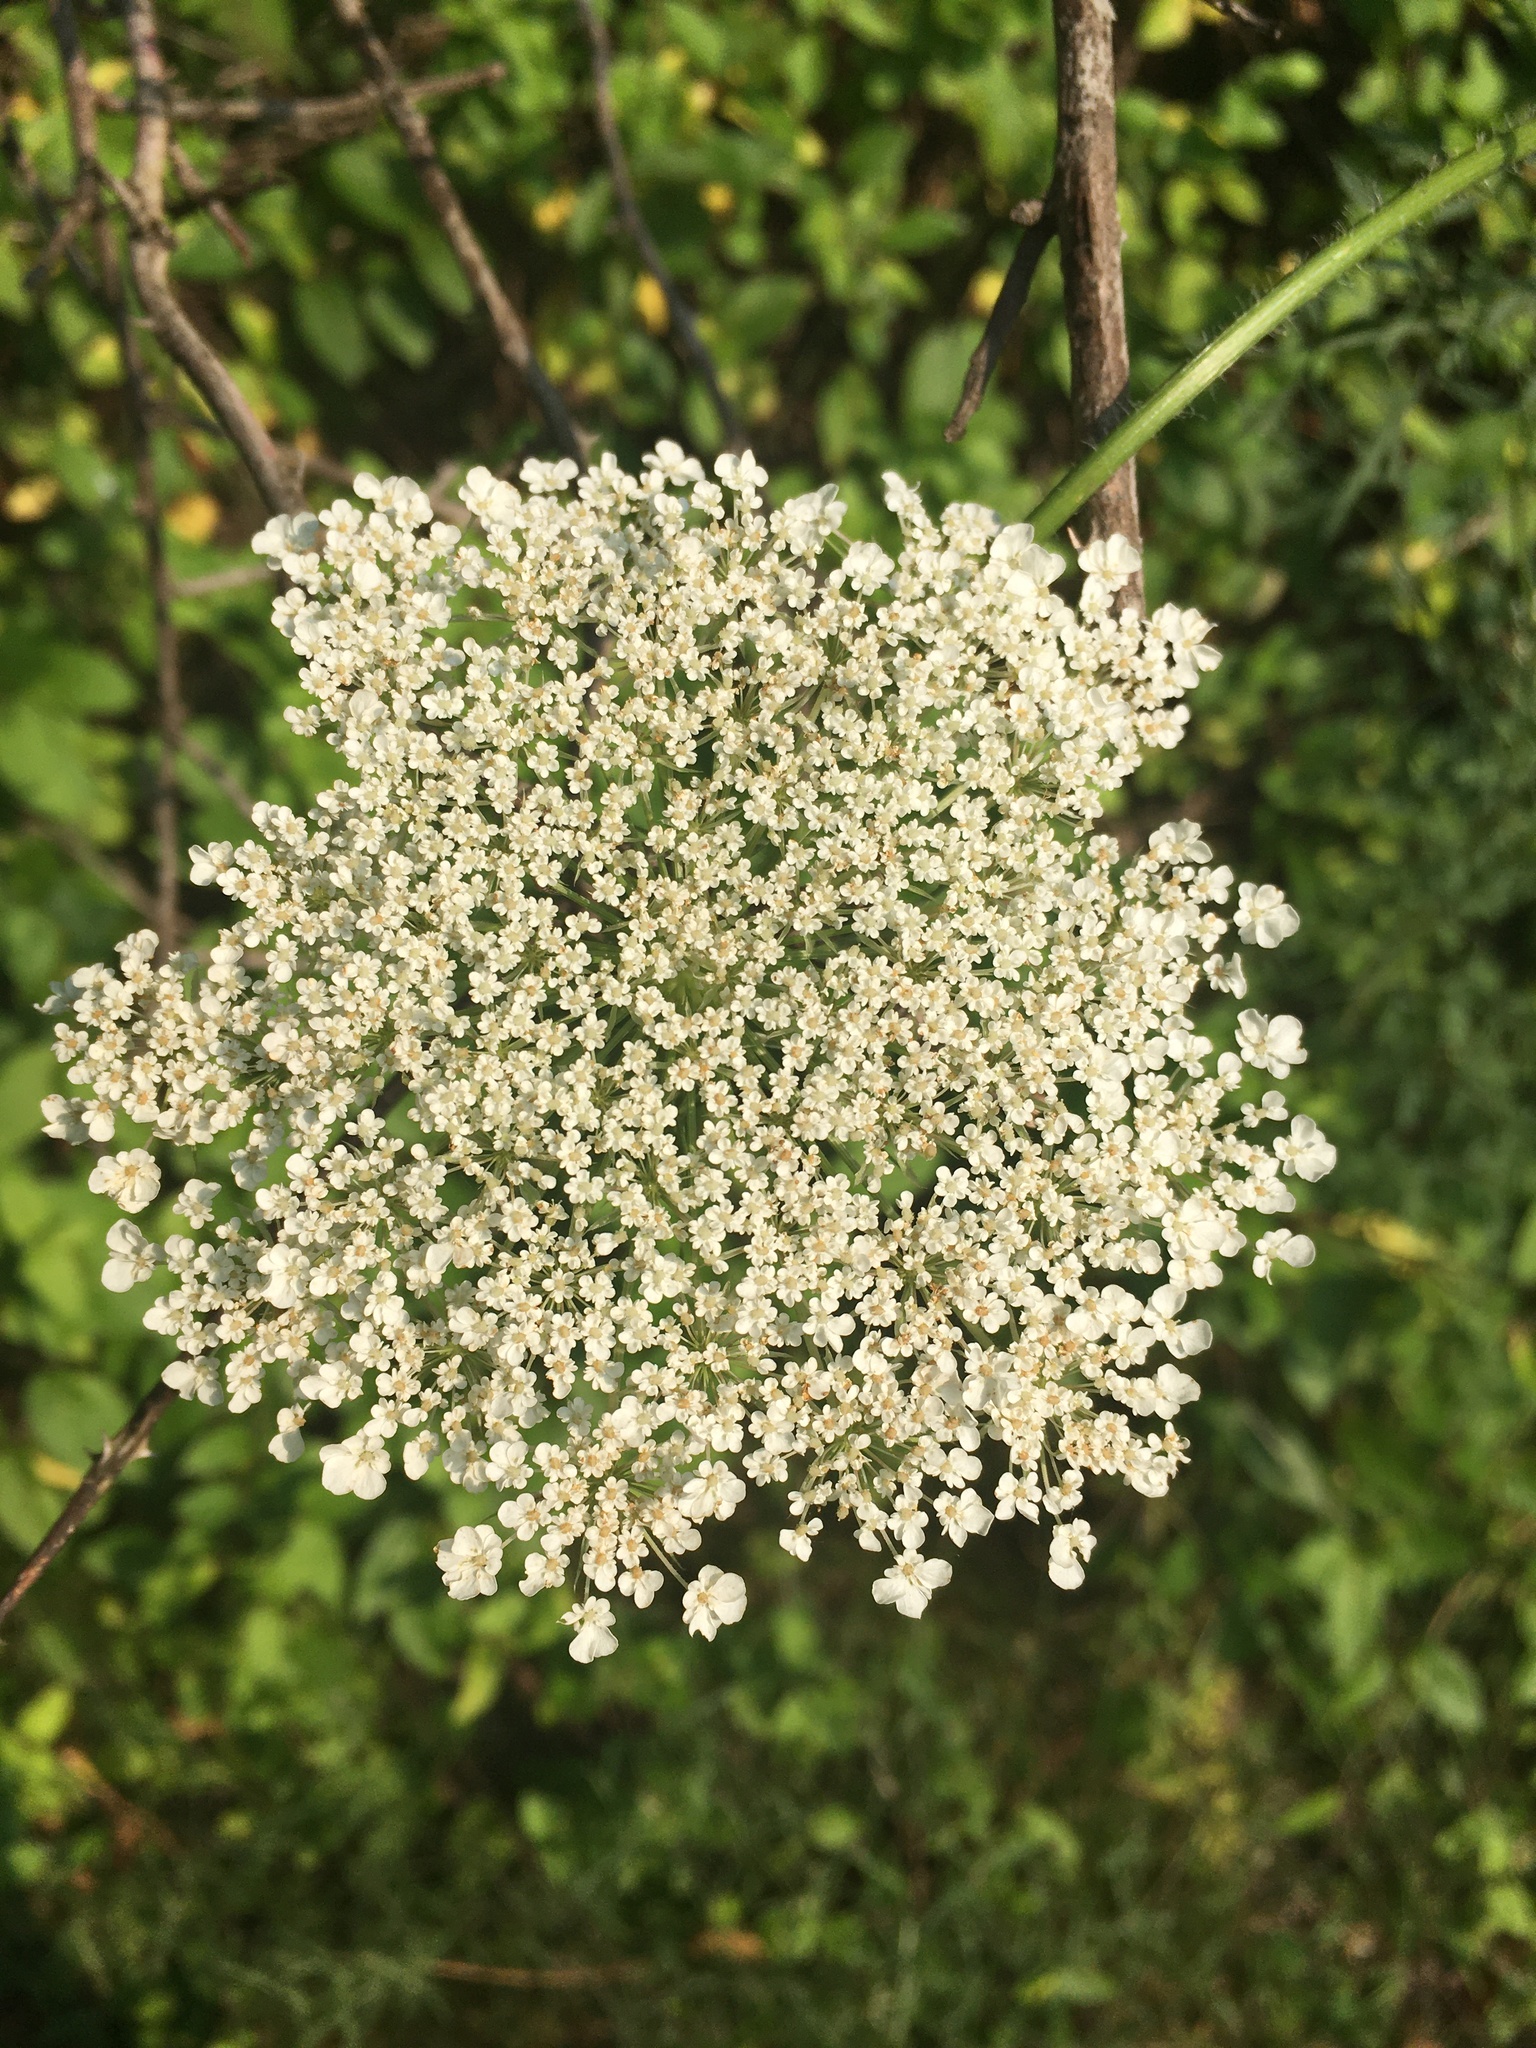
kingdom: Plantae
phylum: Tracheophyta
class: Magnoliopsida
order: Apiales
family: Apiaceae
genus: Daucus
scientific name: Daucus carota
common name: Wild carrot
